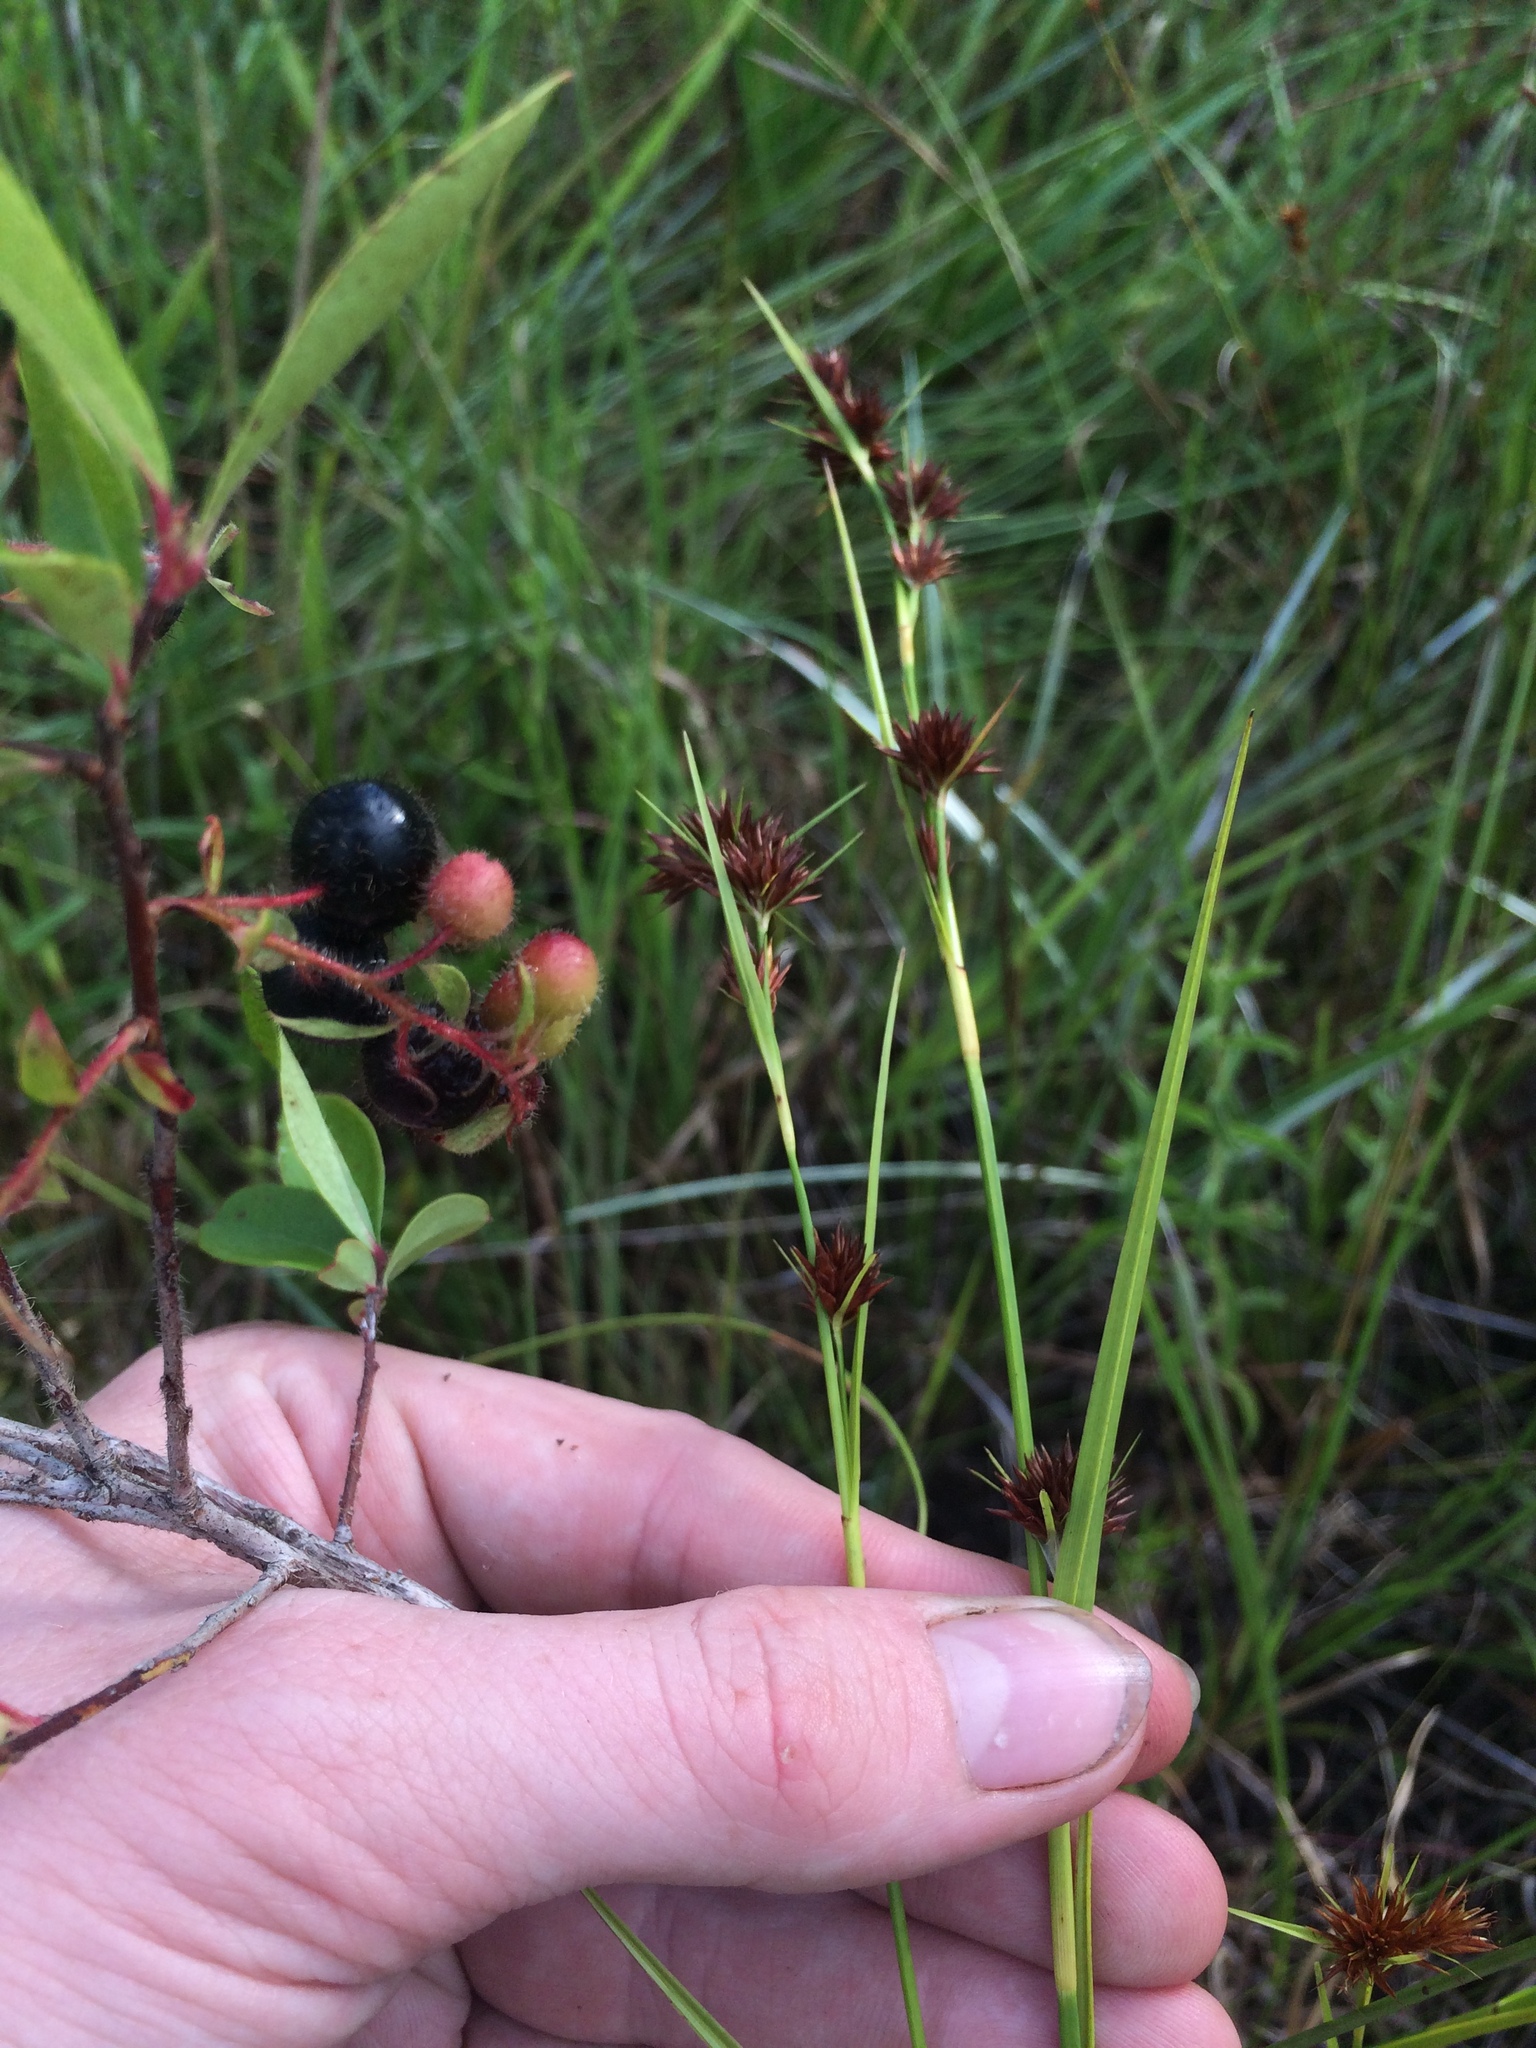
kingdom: Plantae
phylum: Tracheophyta
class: Magnoliopsida
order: Ericales
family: Ericaceae
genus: Gaylussacia
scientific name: Gaylussacia mosieri
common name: Hirsute huckleberry
